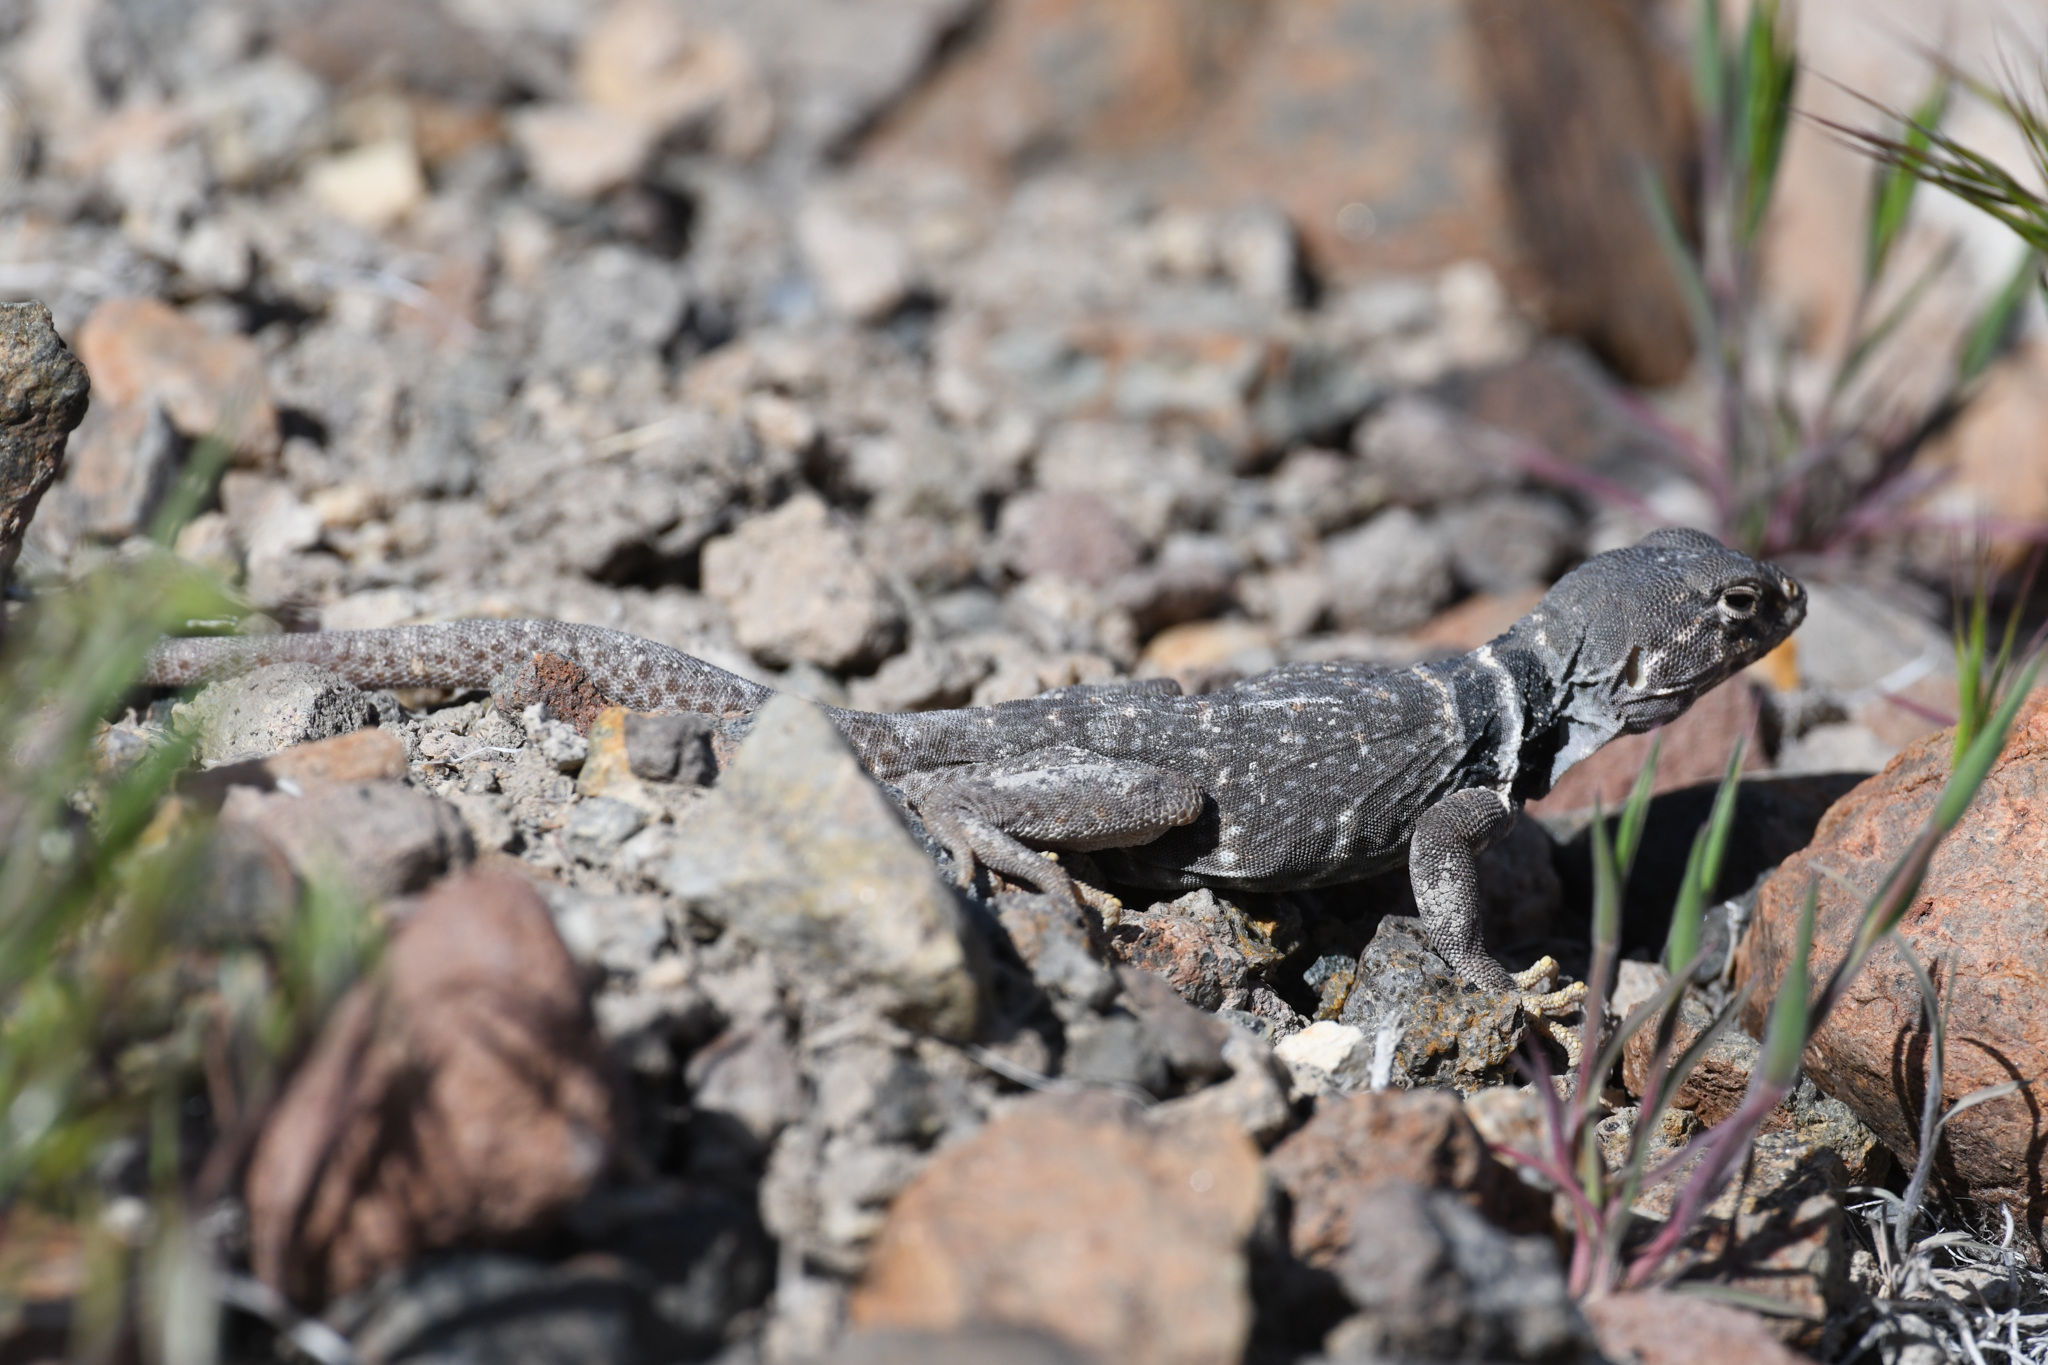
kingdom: Animalia
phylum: Chordata
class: Squamata
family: Crotaphytidae
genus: Crotaphytus
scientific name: Crotaphytus bicinctores
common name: Mojave black-collared lizard
